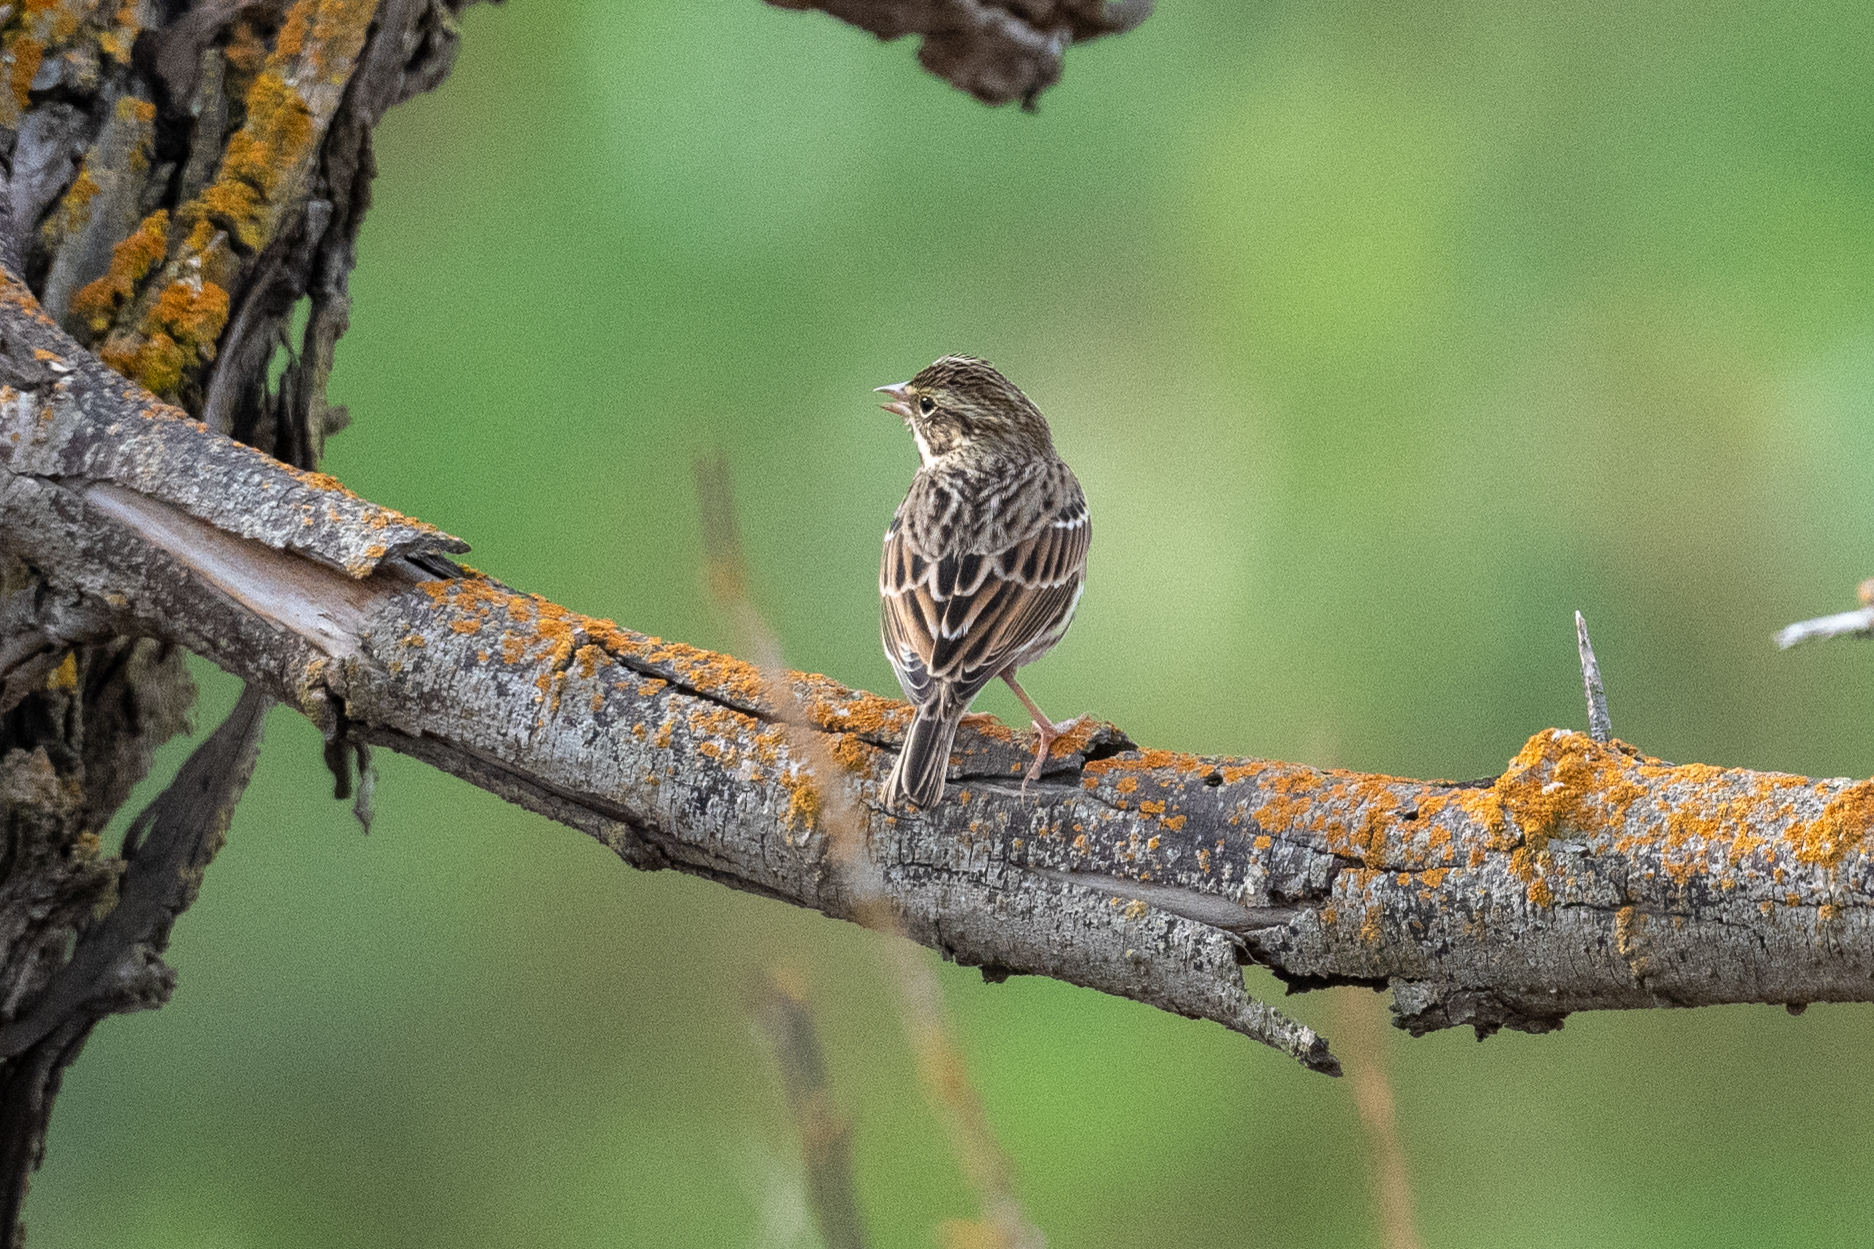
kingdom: Animalia
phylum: Chordata
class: Aves
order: Passeriformes
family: Passerellidae
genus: Passerculus
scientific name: Passerculus sandwichensis
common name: Savannah sparrow
